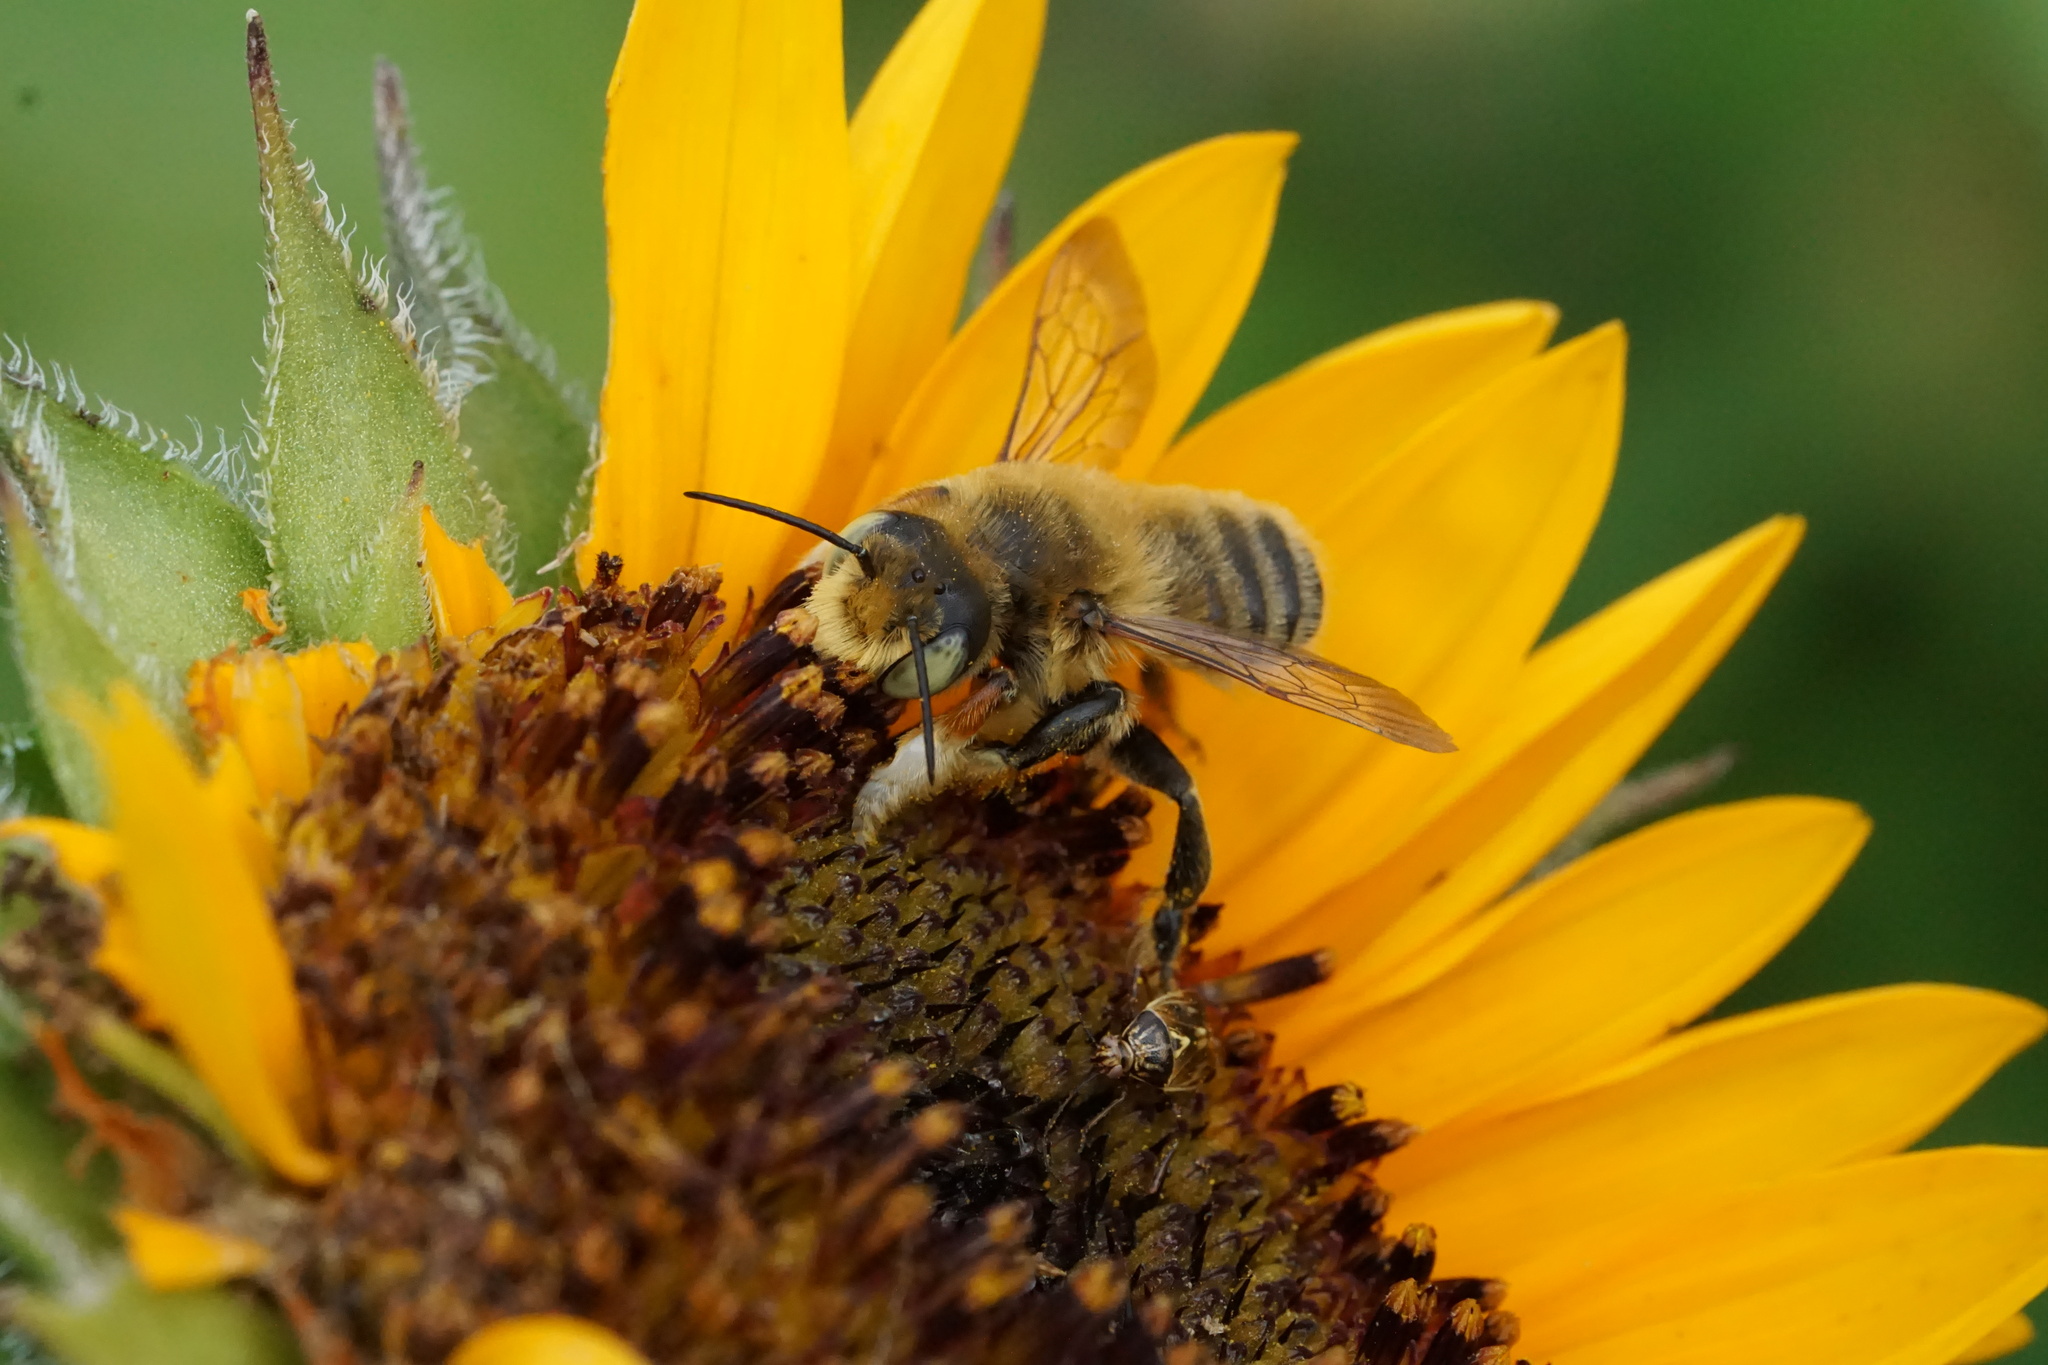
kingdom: Animalia
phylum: Arthropoda
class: Insecta
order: Hymenoptera
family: Megachilidae
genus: Megachile
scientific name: Megachile latimanus
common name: Leafcutting bee
